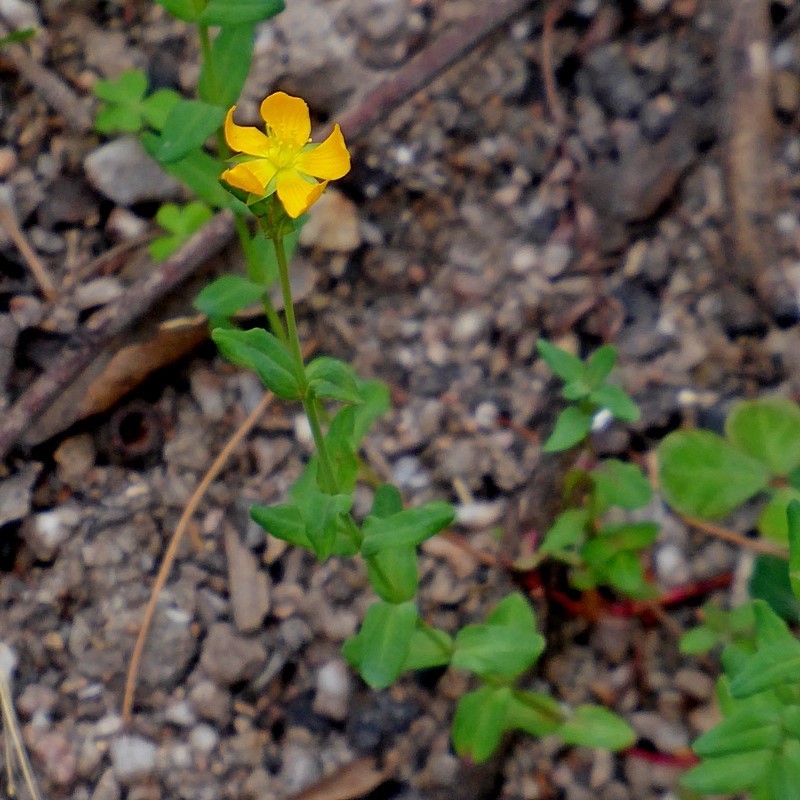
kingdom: Plantae
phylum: Tracheophyta
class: Magnoliopsida
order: Malpighiales
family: Hypericaceae
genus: Hypericum
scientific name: Hypericum gramineum
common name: Grassy st. johnswort
